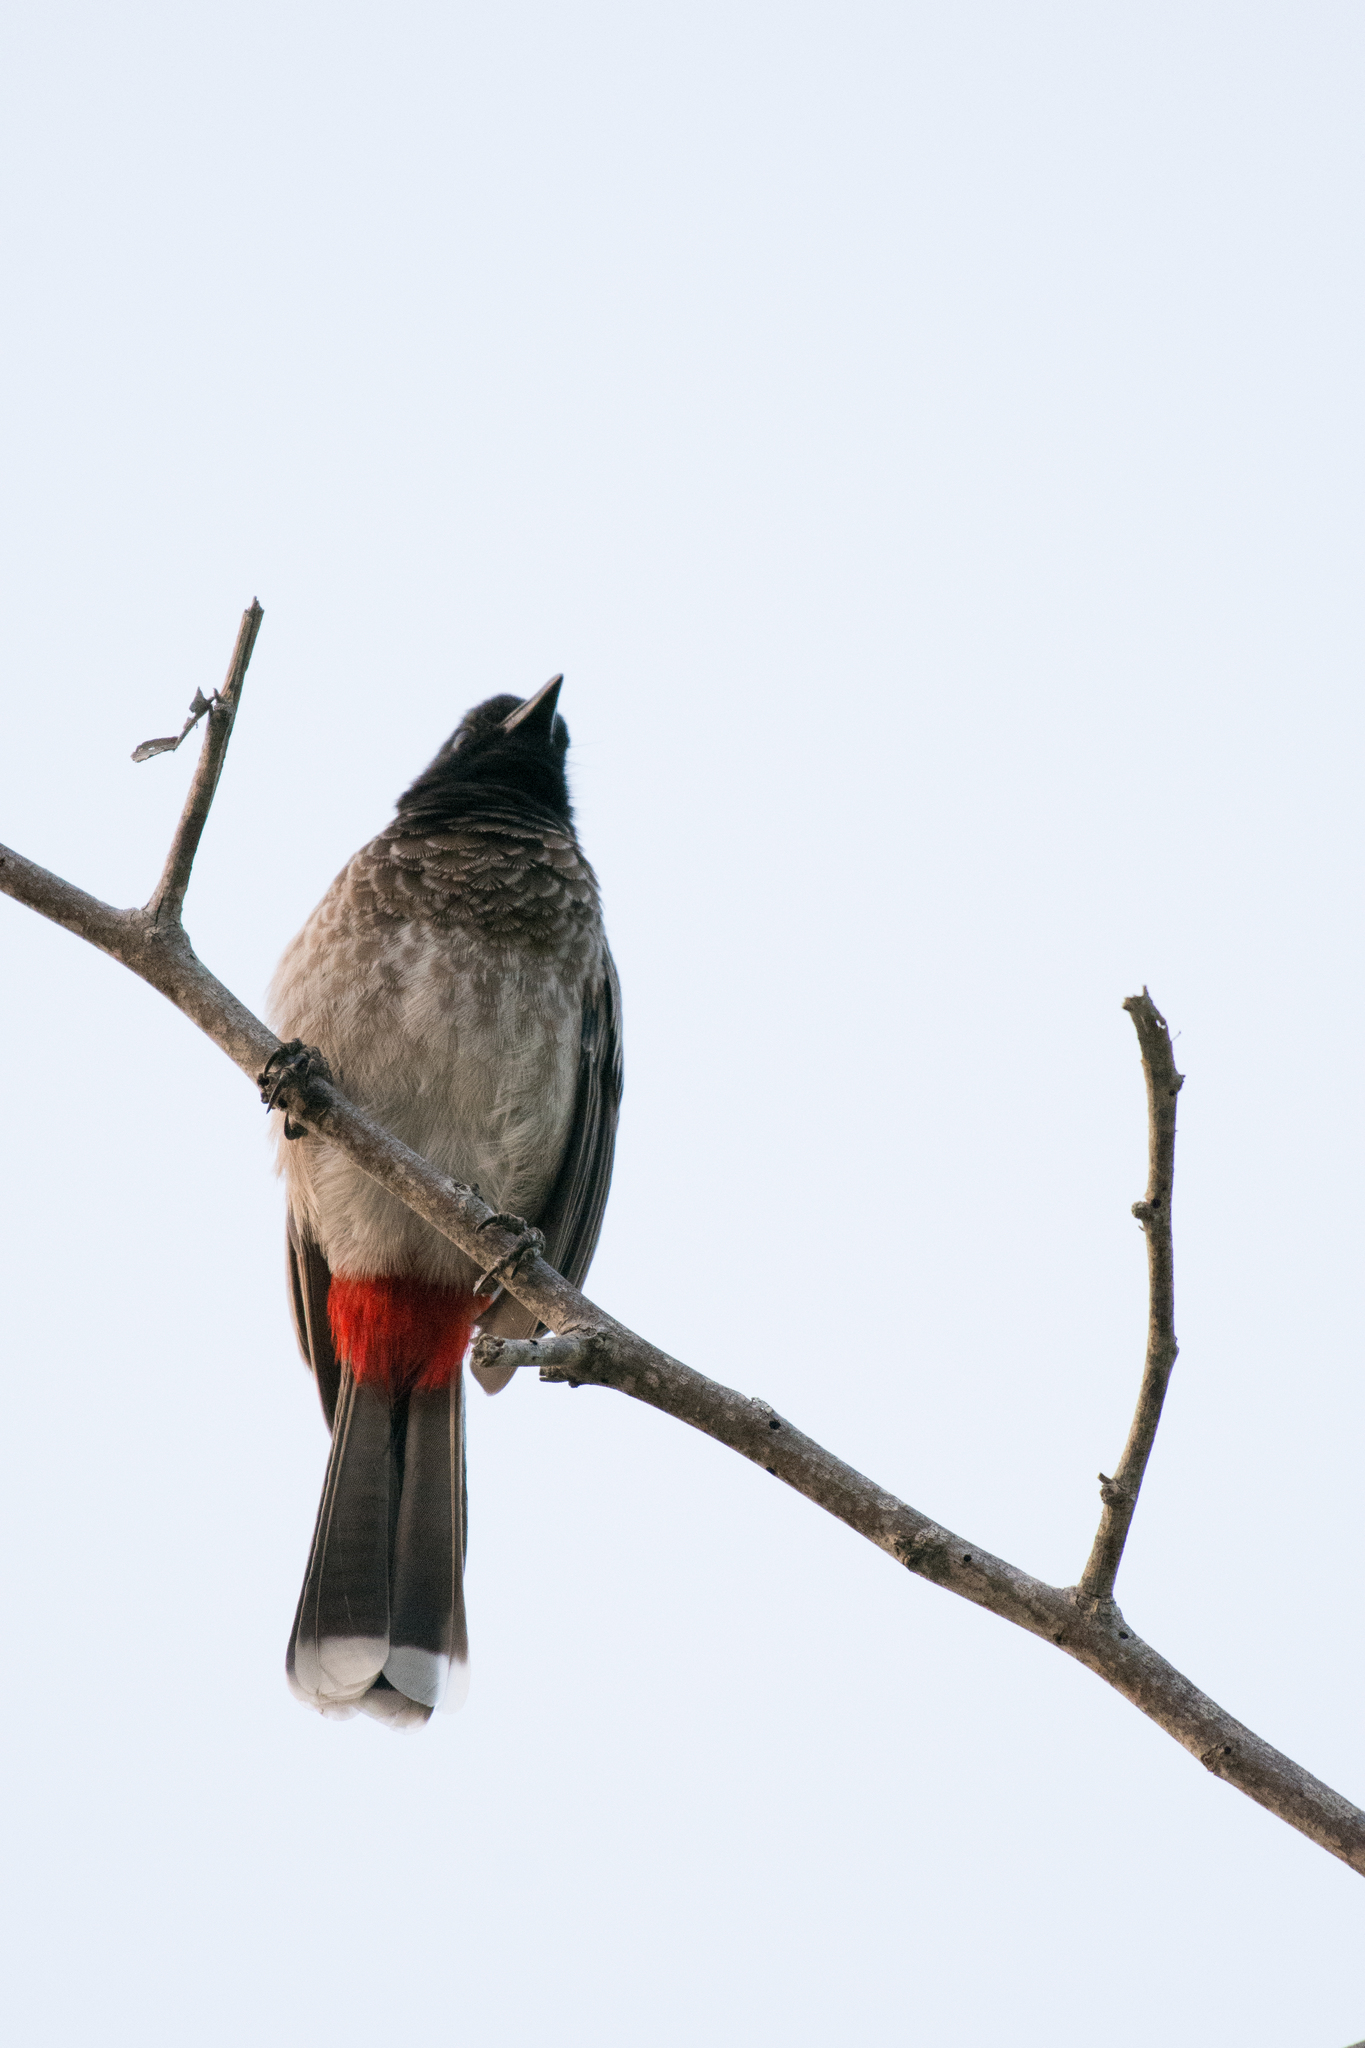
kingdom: Animalia
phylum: Chordata
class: Aves
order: Passeriformes
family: Pycnonotidae
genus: Pycnonotus
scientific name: Pycnonotus cafer
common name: Red-vented bulbul
